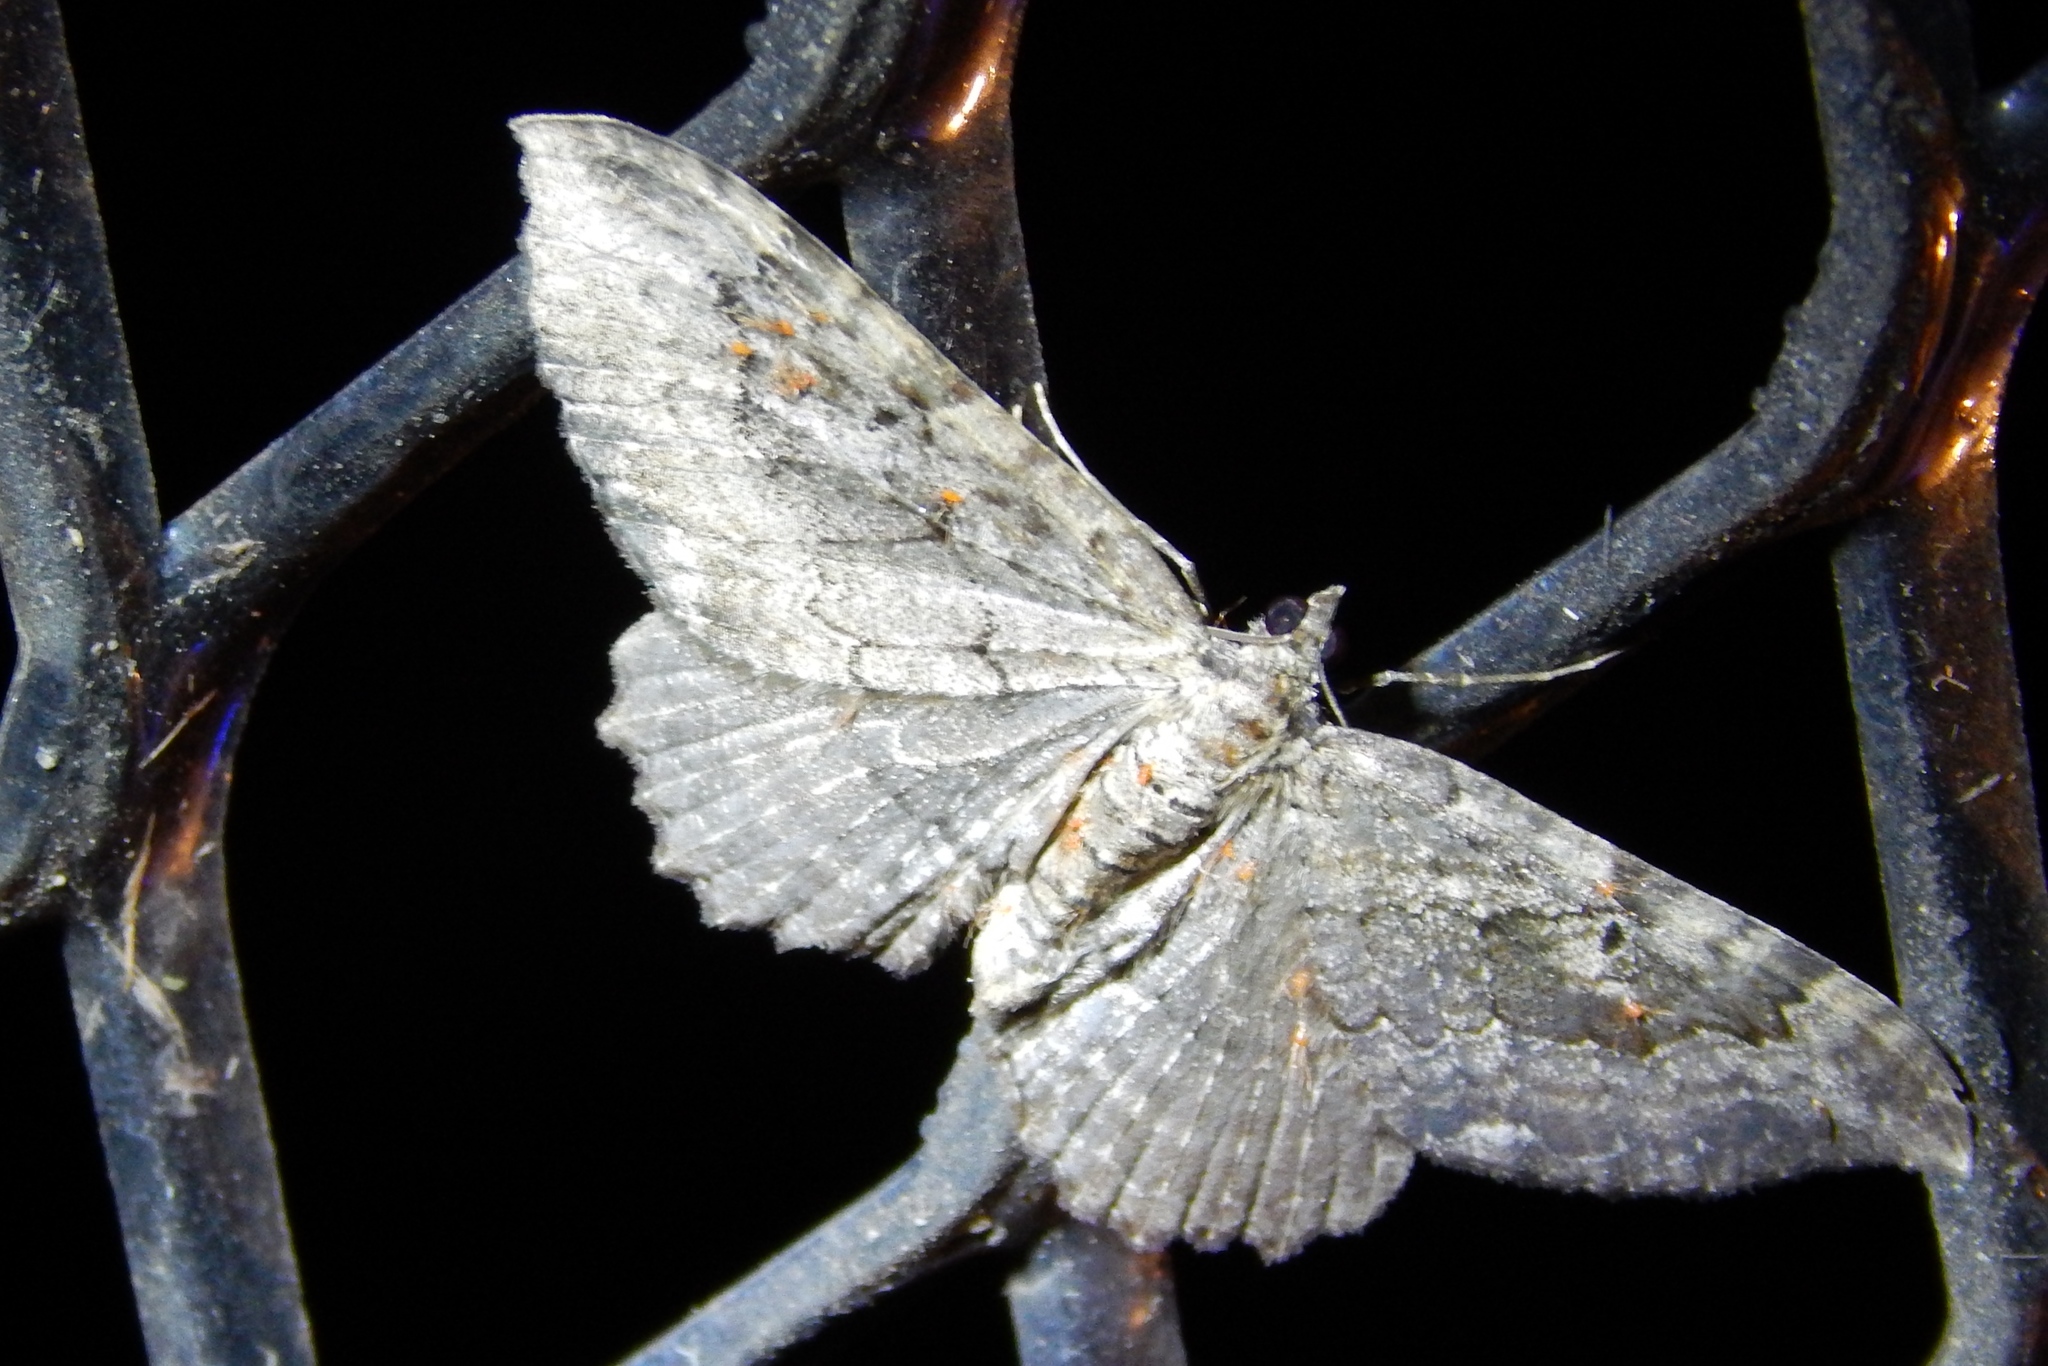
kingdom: Animalia
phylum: Arthropoda
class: Insecta
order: Lepidoptera
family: Geometridae
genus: Rheumaptera
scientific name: Rheumaptera
